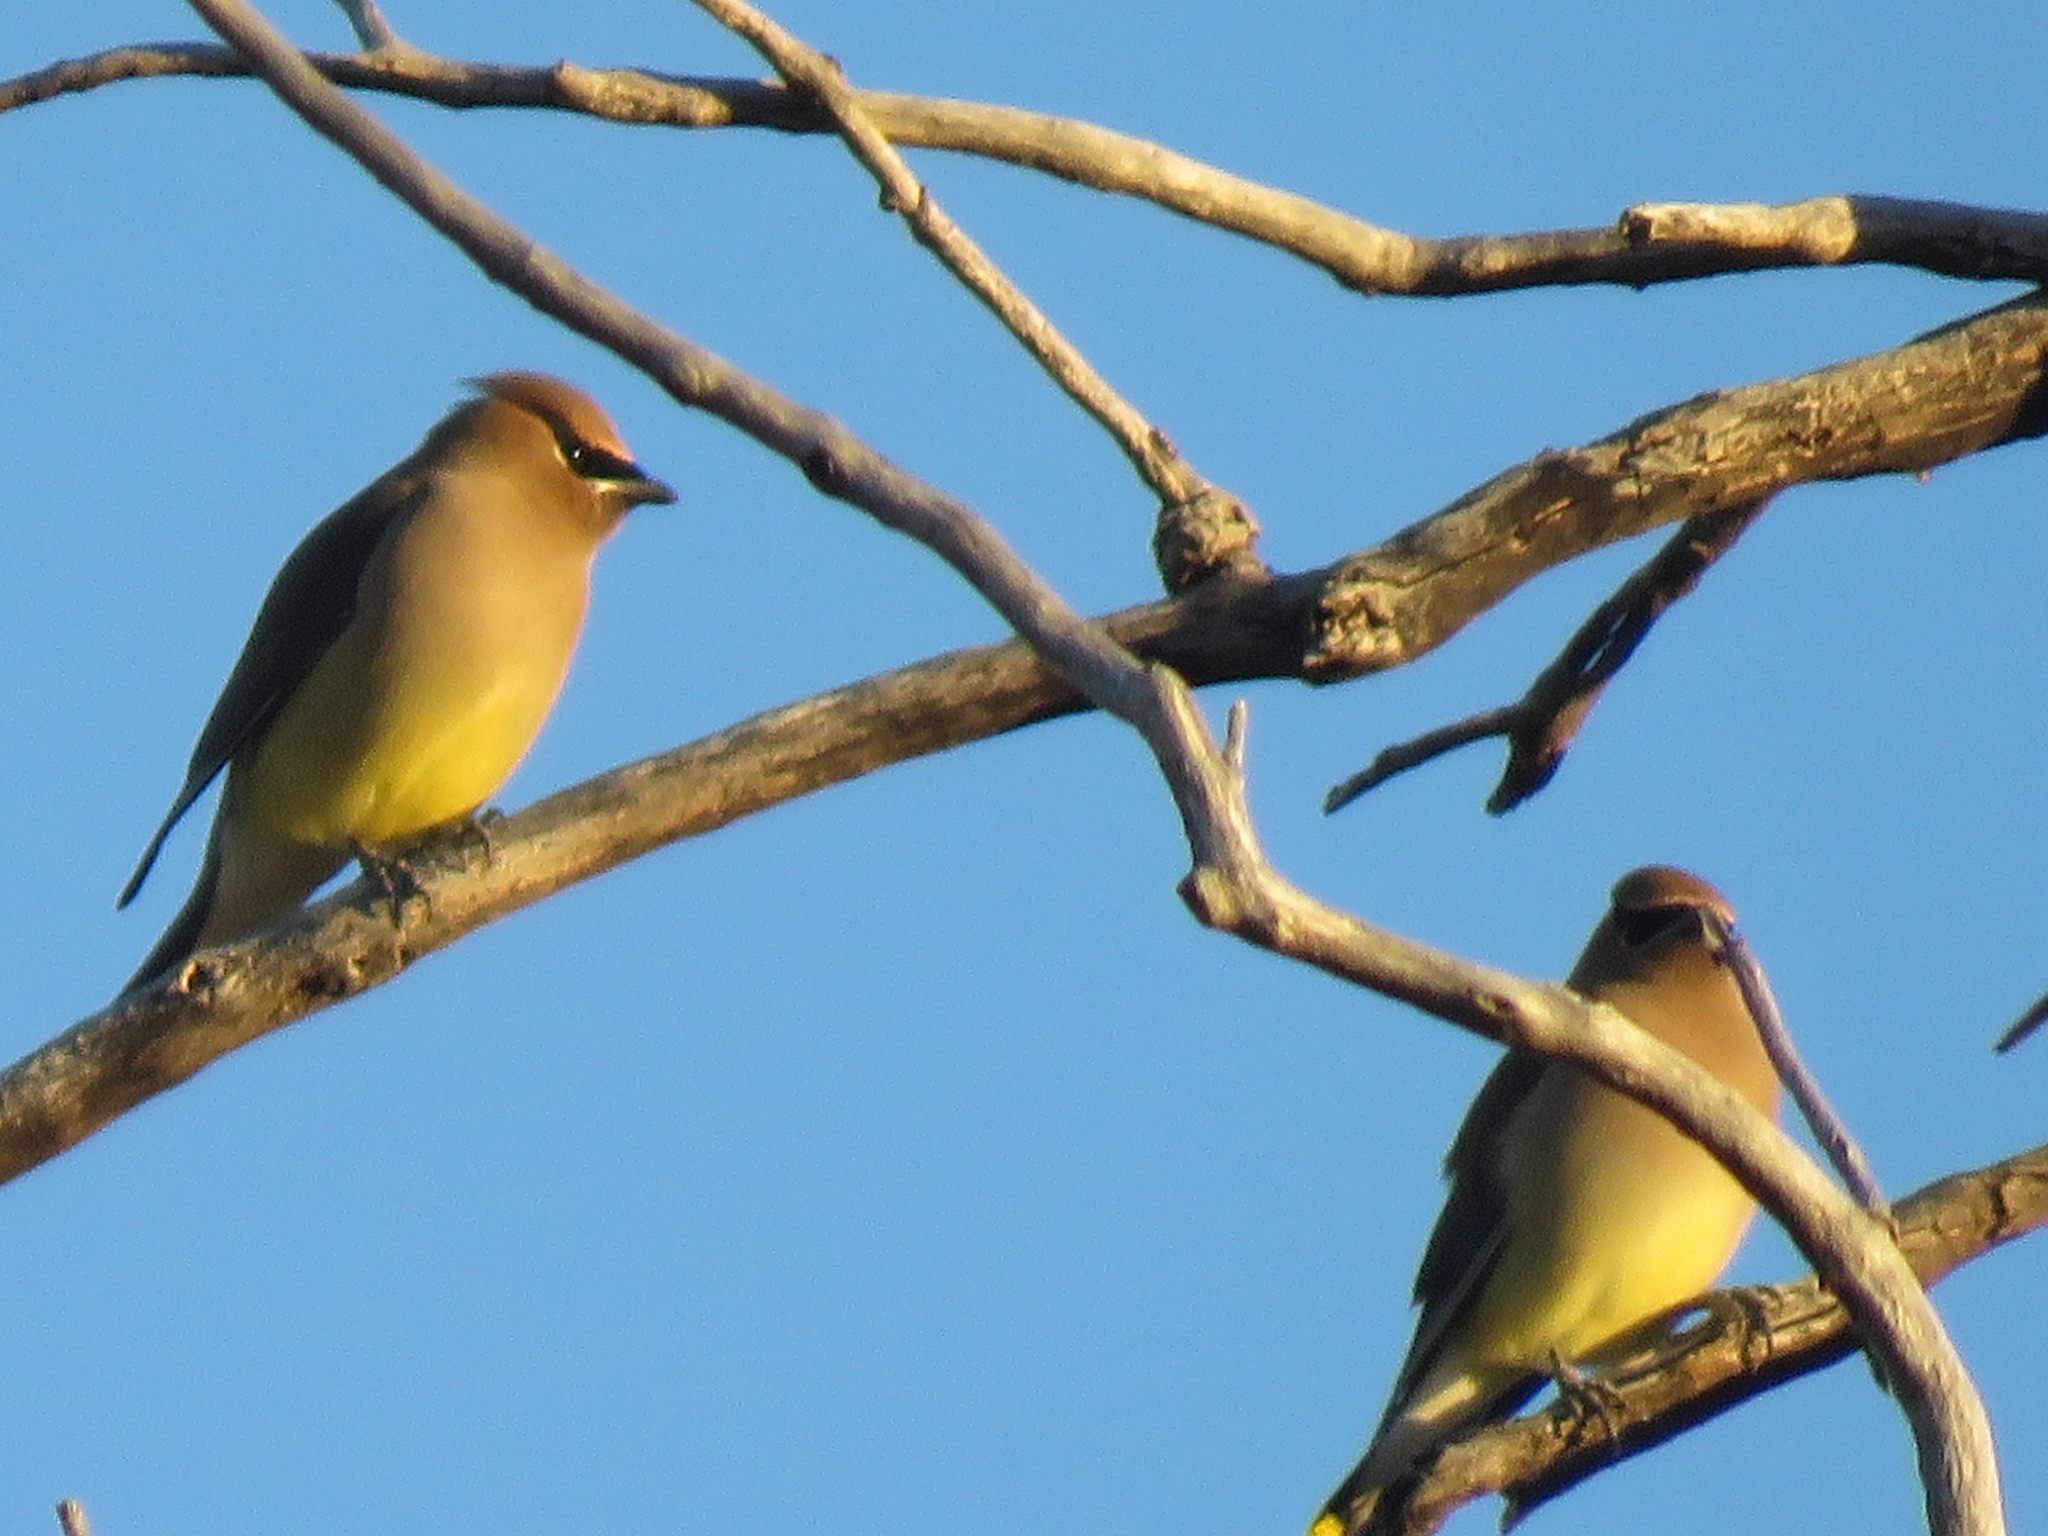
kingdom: Animalia
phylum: Chordata
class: Aves
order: Passeriformes
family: Bombycillidae
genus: Bombycilla
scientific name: Bombycilla cedrorum
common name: Cedar waxwing
